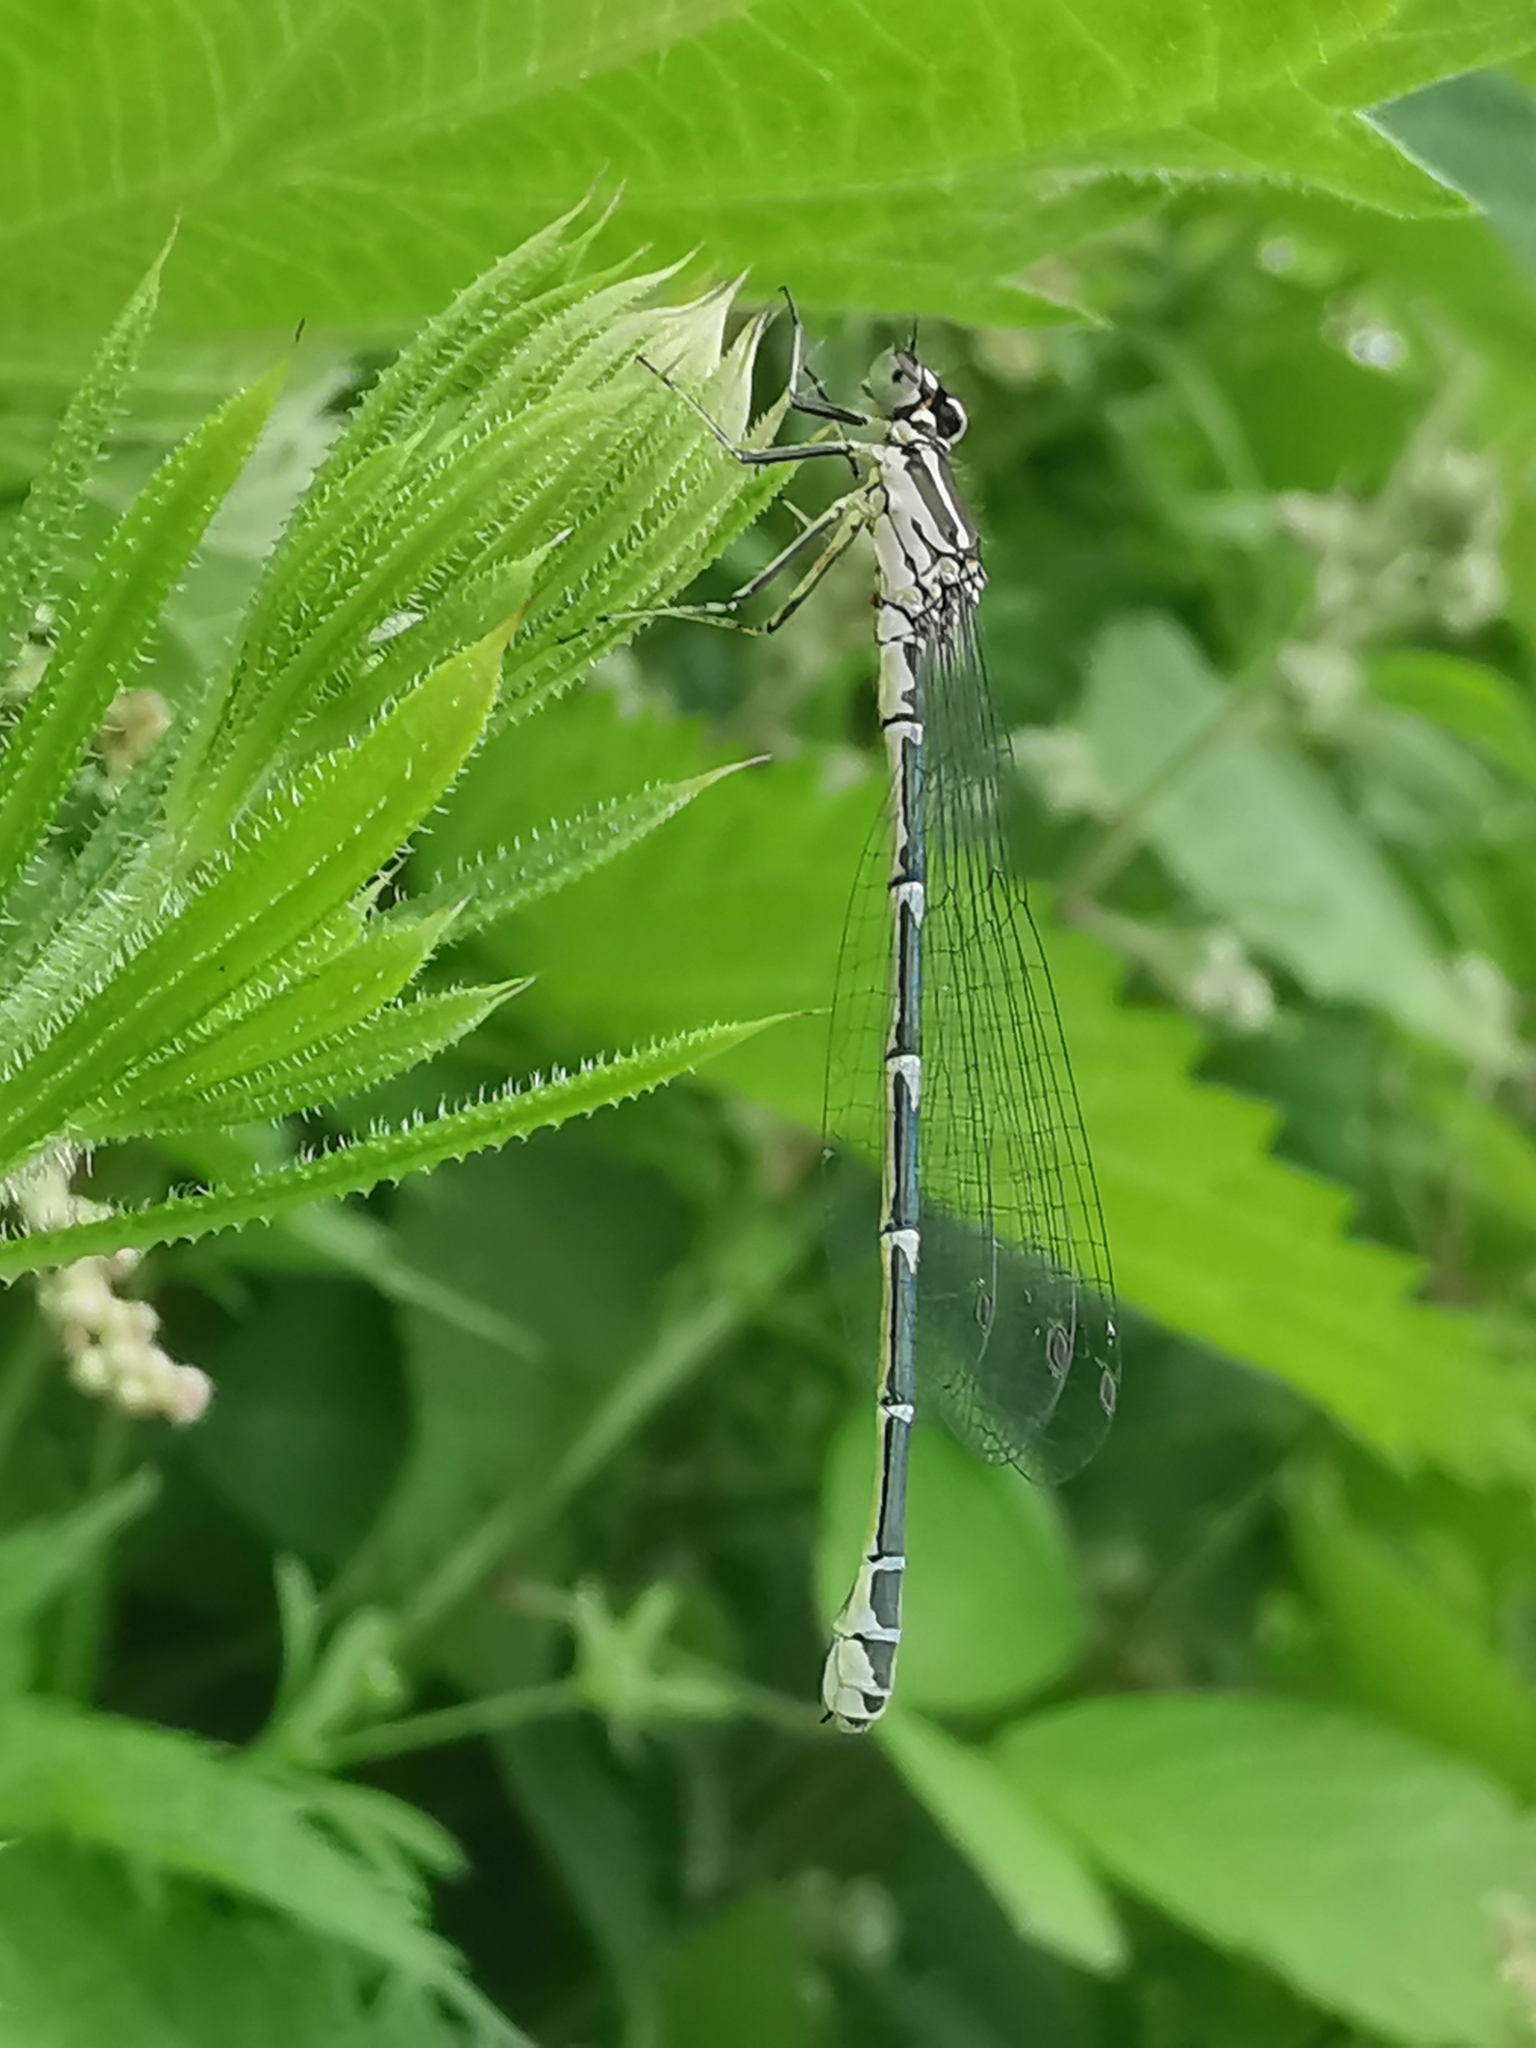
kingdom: Animalia
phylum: Arthropoda
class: Insecta
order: Odonata
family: Coenagrionidae
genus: Coenagrion
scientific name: Coenagrion puella
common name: Azure damselfly
